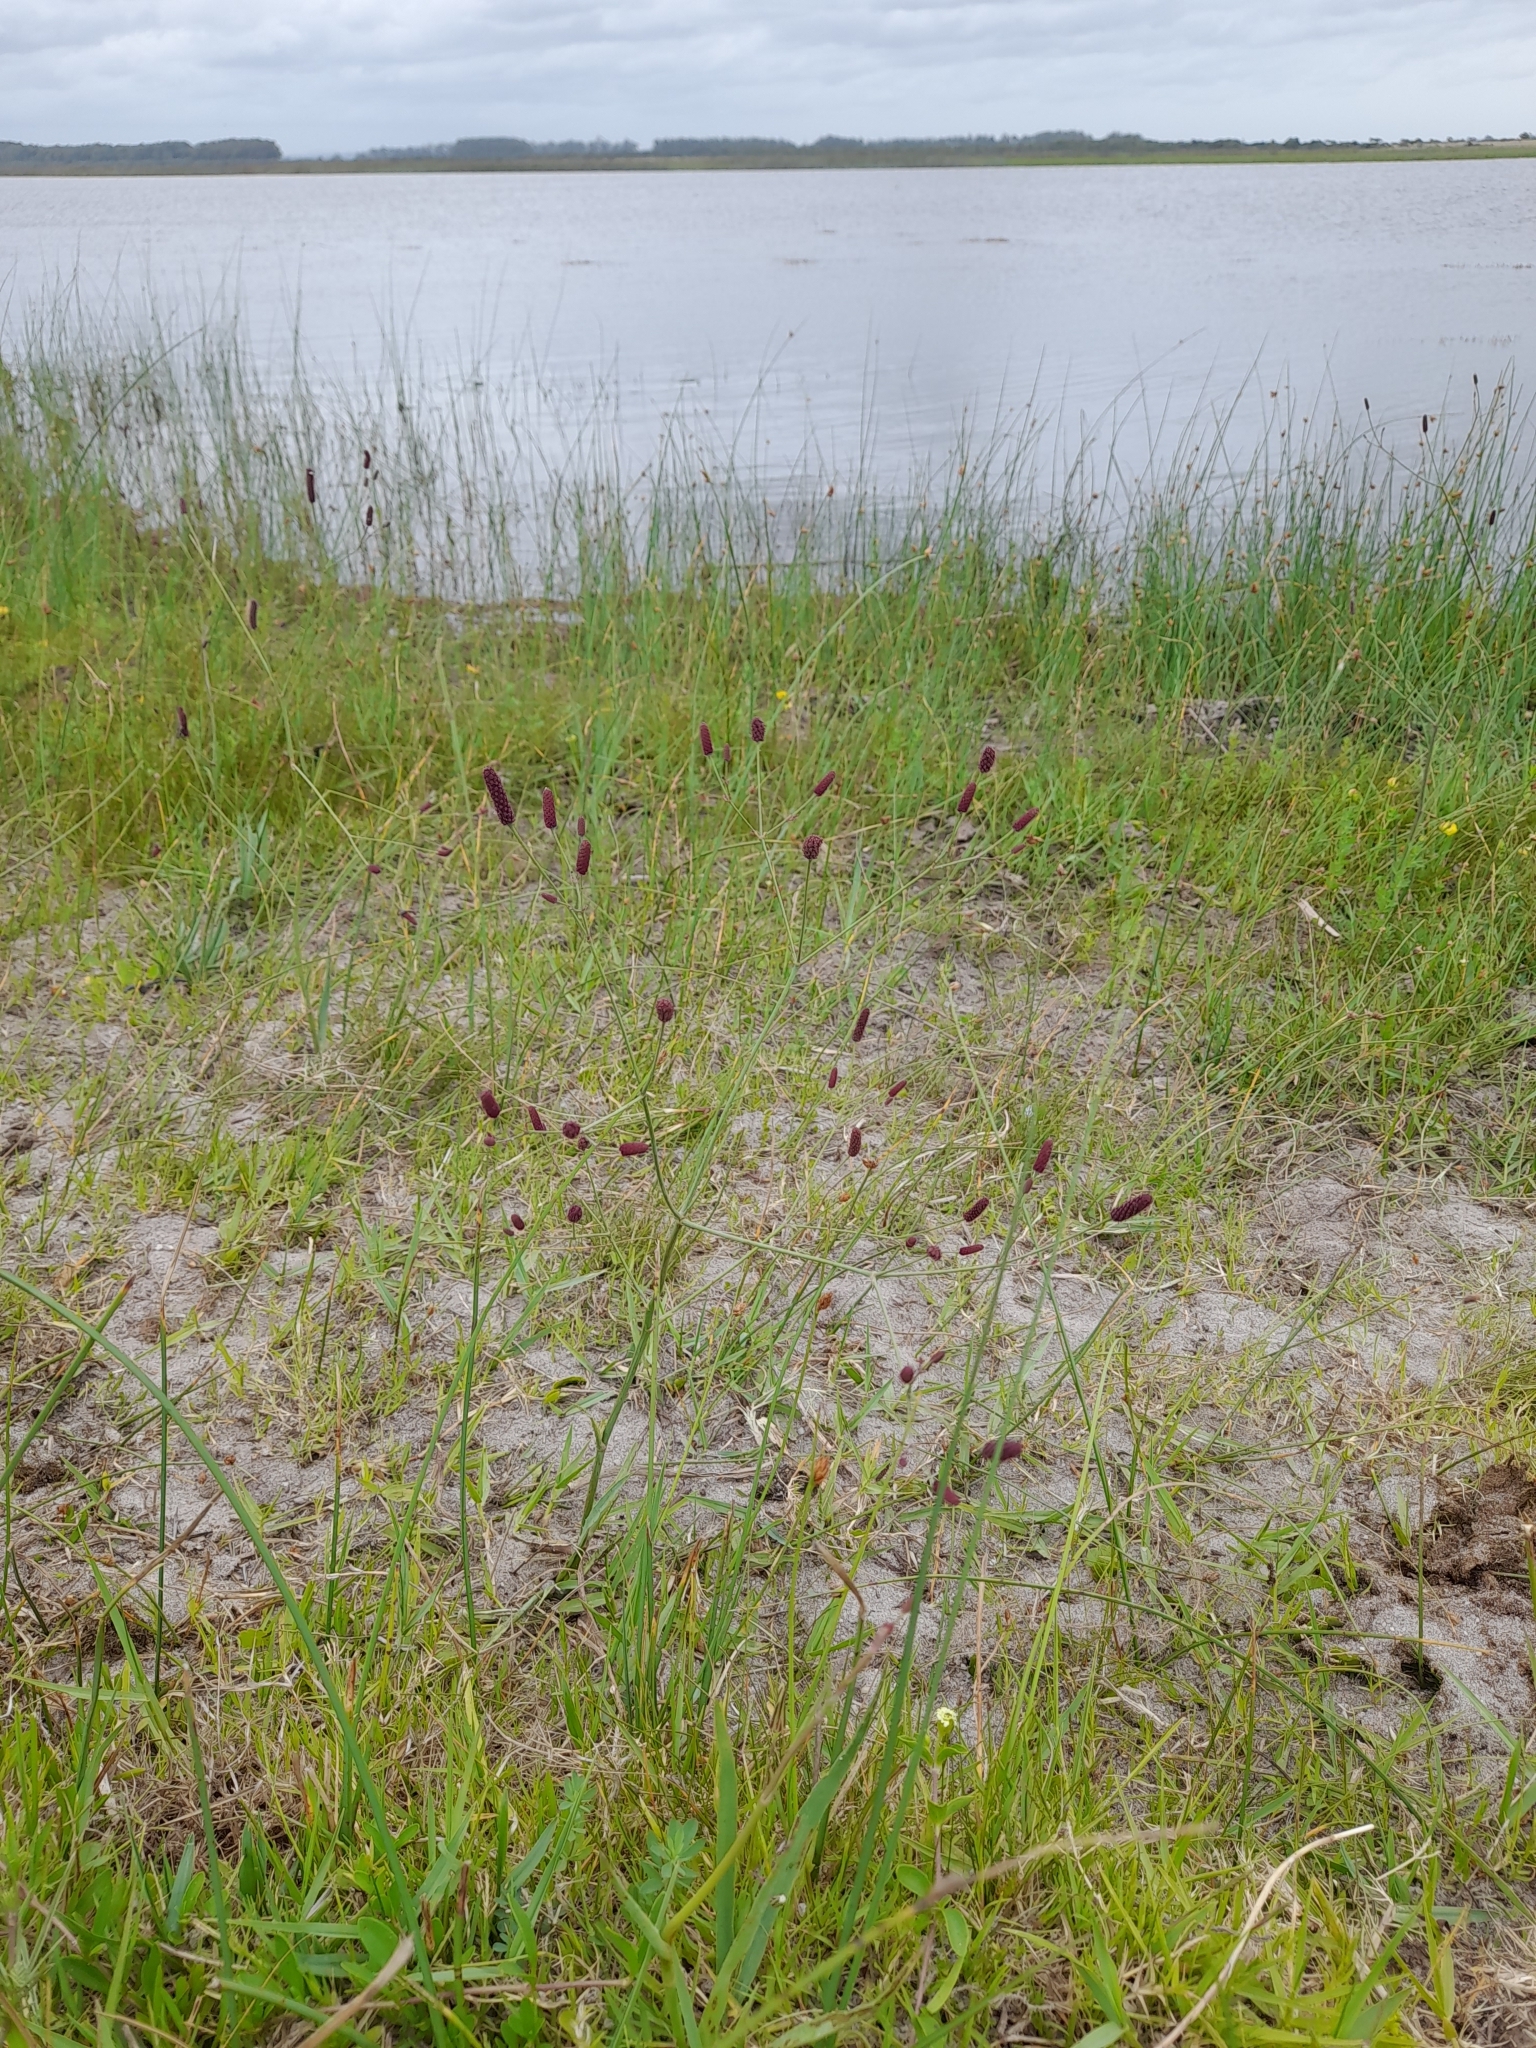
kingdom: Plantae
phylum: Tracheophyta
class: Magnoliopsida
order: Apiales
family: Apiaceae
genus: Eryngium
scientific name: Eryngium ebracteatum
